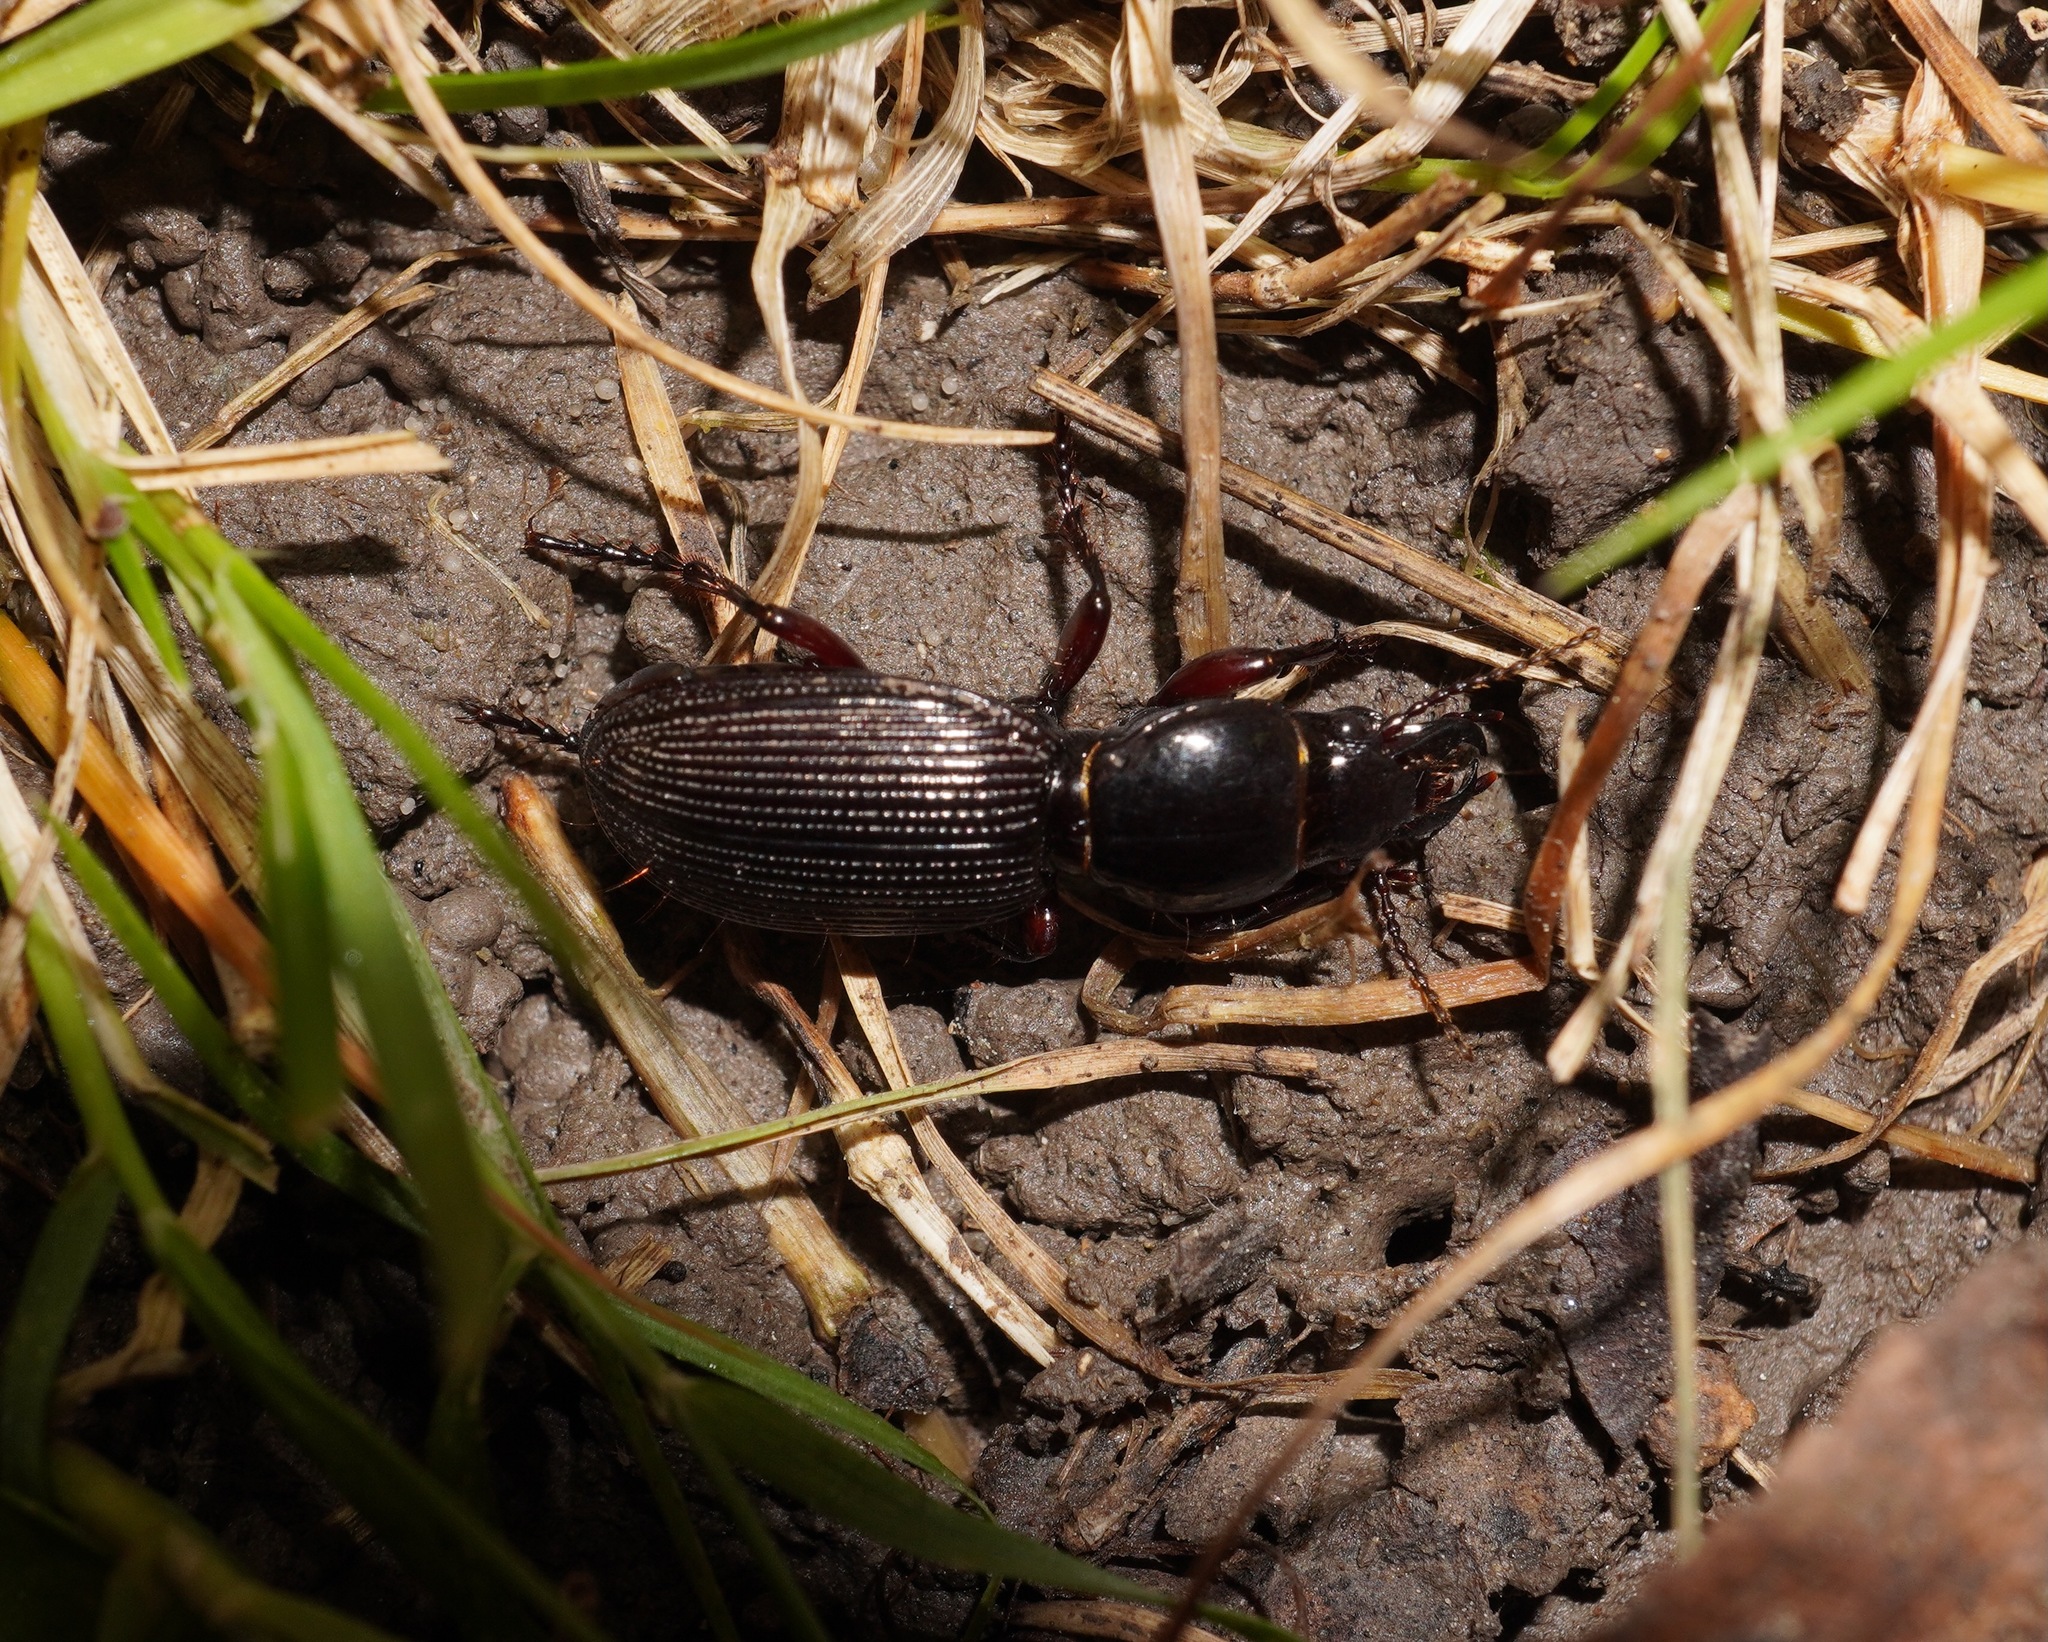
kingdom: Animalia
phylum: Arthropoda
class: Insecta
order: Coleoptera
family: Carabidae
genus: Mecodema
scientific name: Mecodema oblongum
